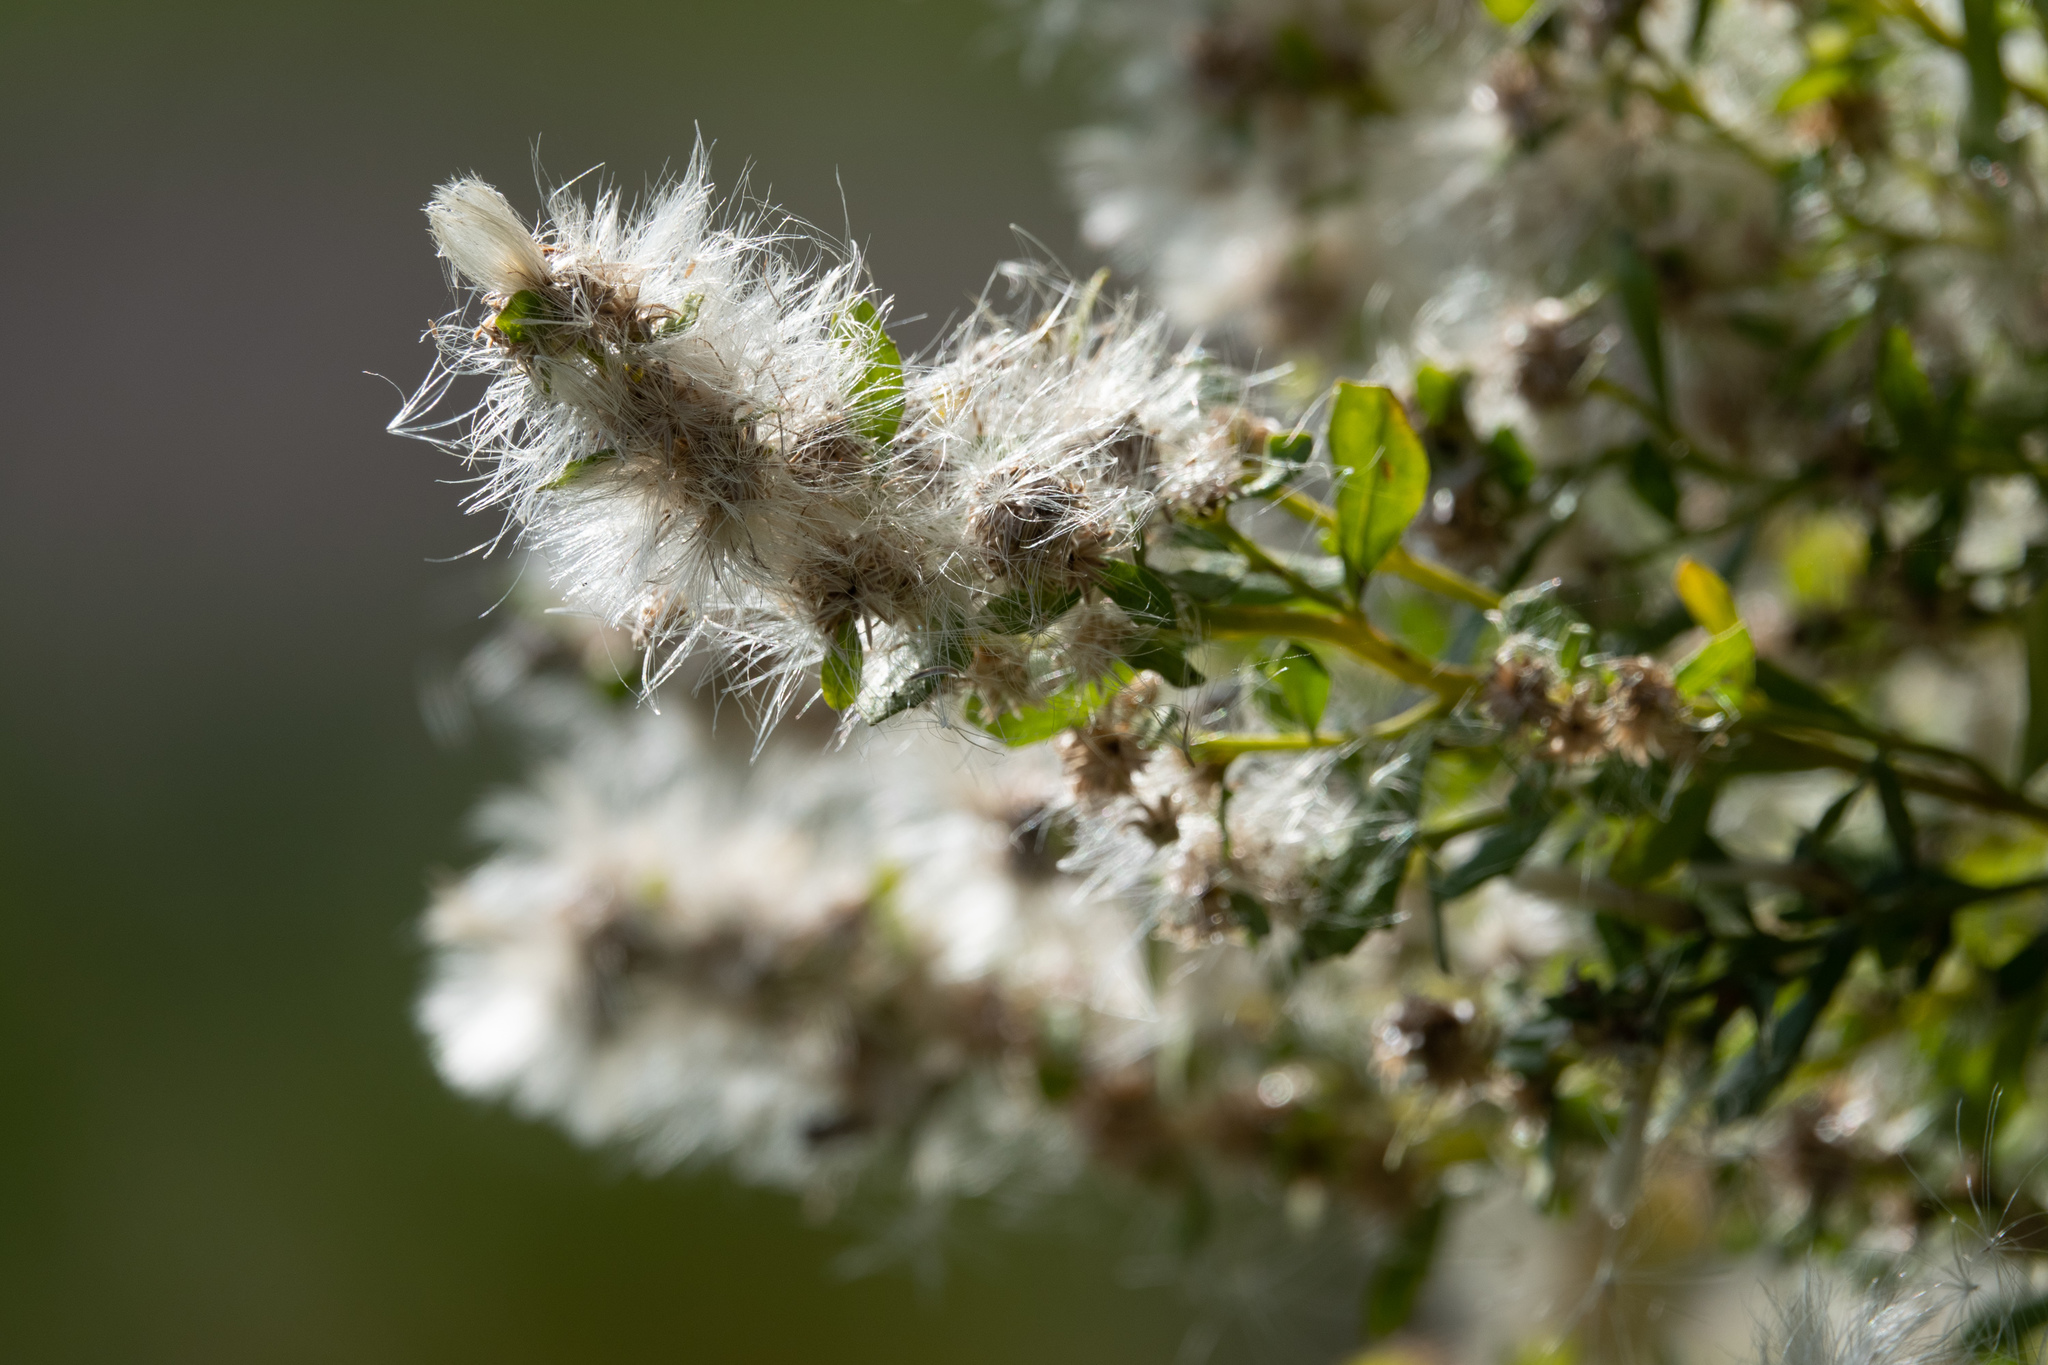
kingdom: Plantae
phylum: Tracheophyta
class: Magnoliopsida
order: Asterales
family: Asteraceae
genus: Baccharis
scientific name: Baccharis pilularis
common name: Coyotebrush
